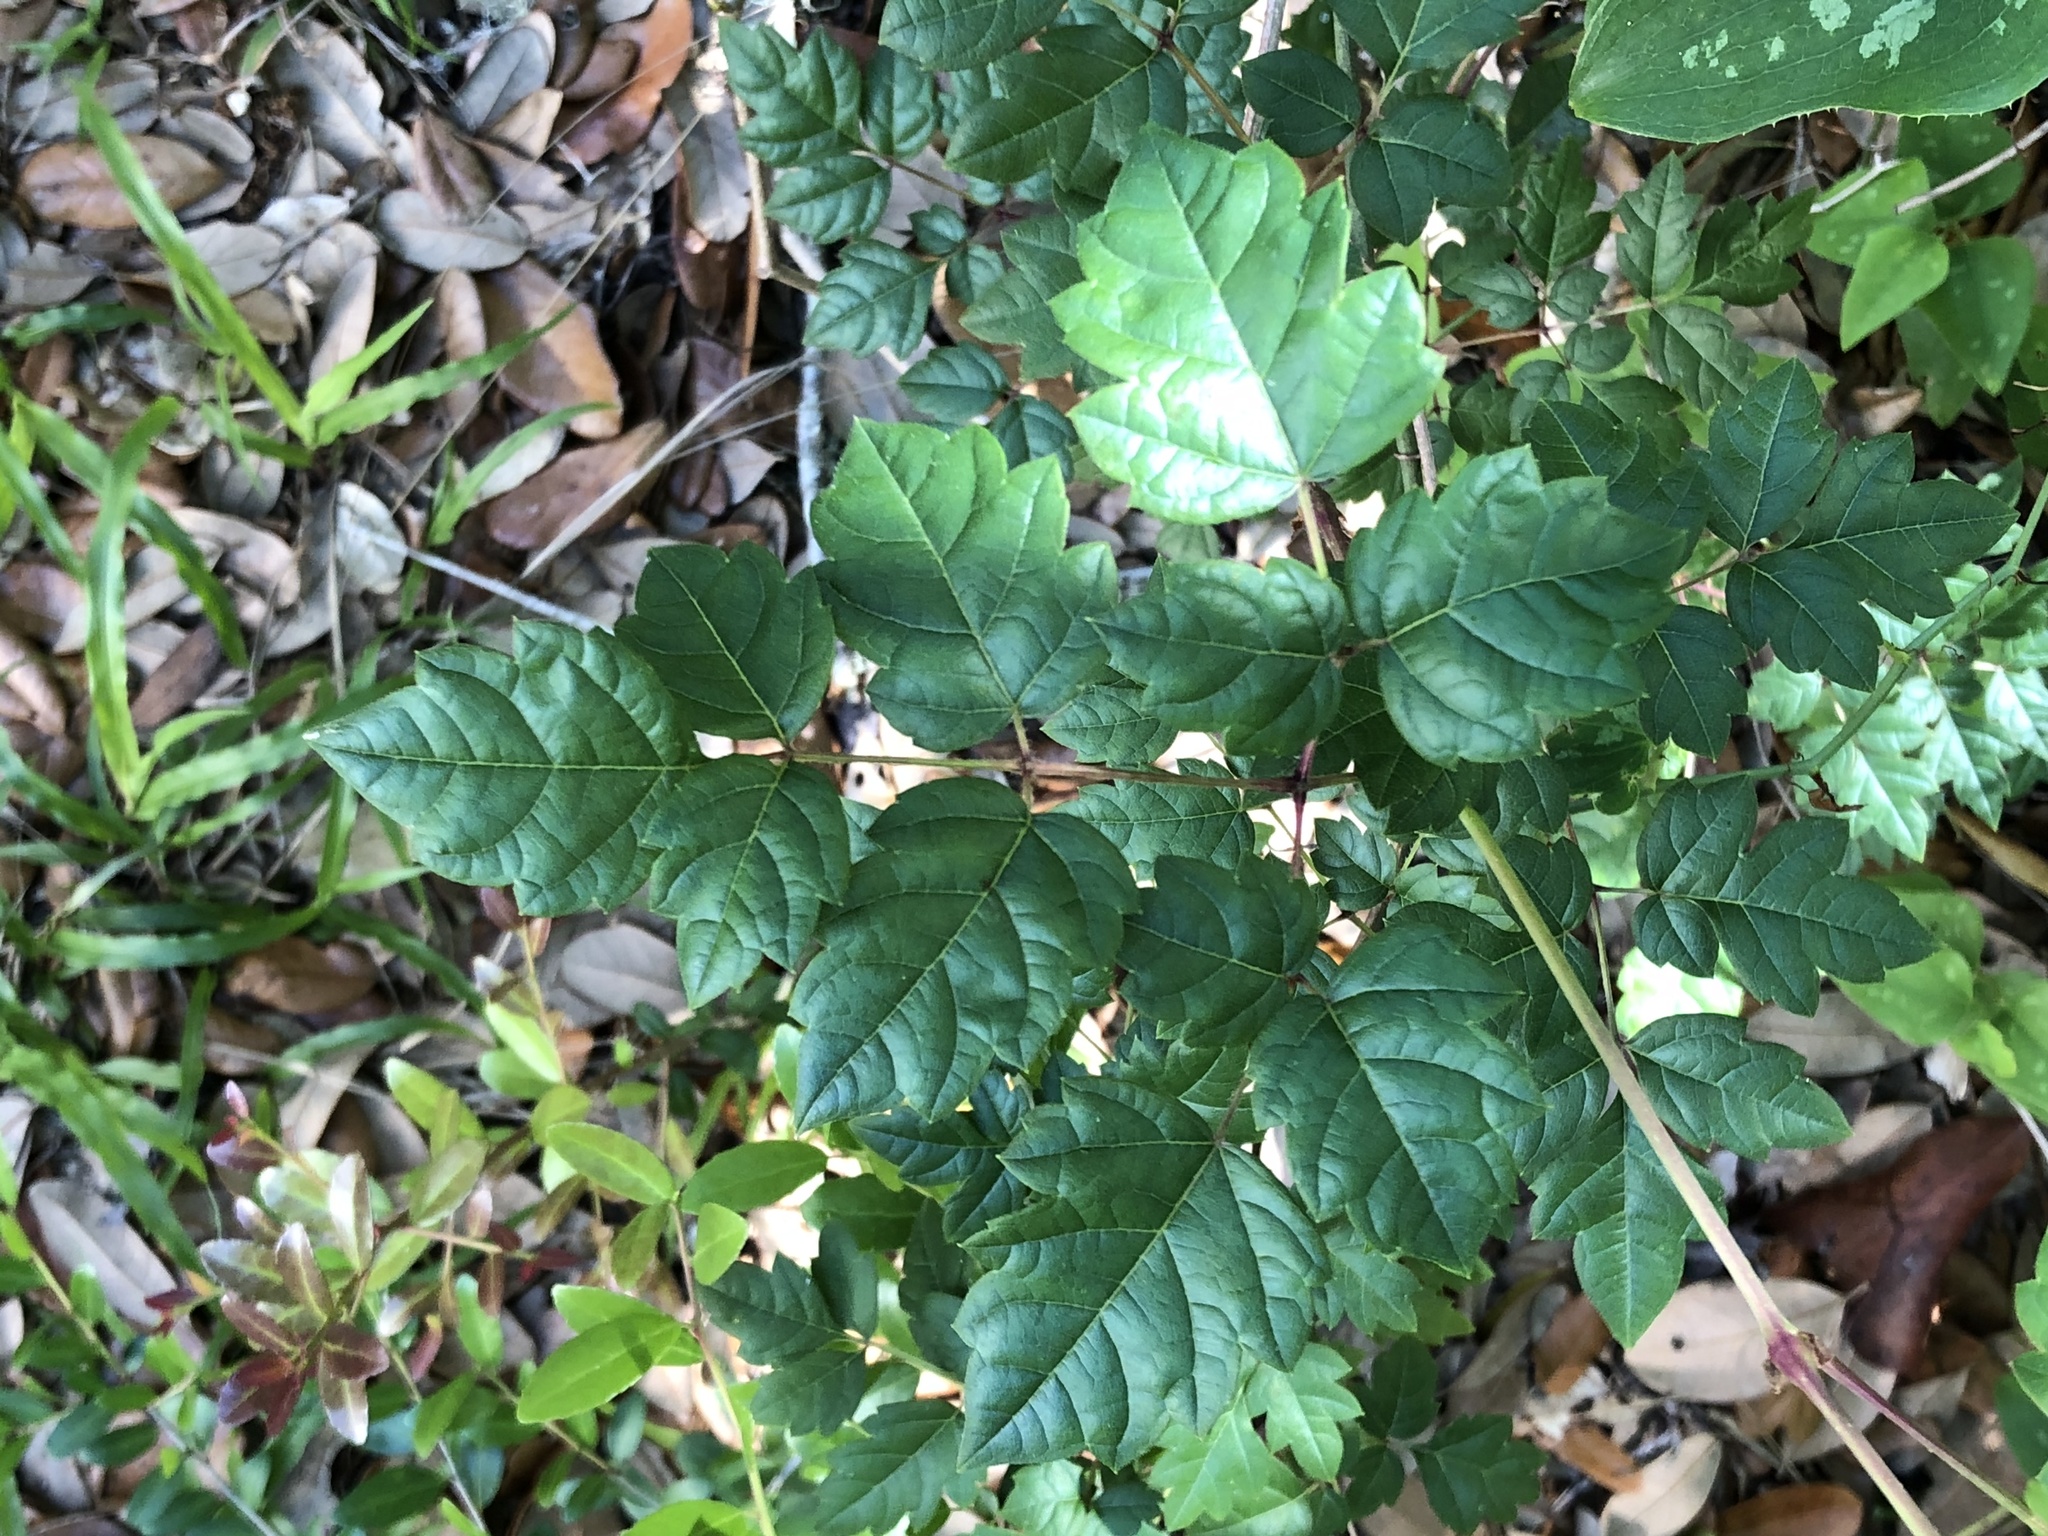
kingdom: Plantae
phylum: Tracheophyta
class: Magnoliopsida
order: Vitales
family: Vitaceae
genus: Nekemias
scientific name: Nekemias arborea
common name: Peppervine
